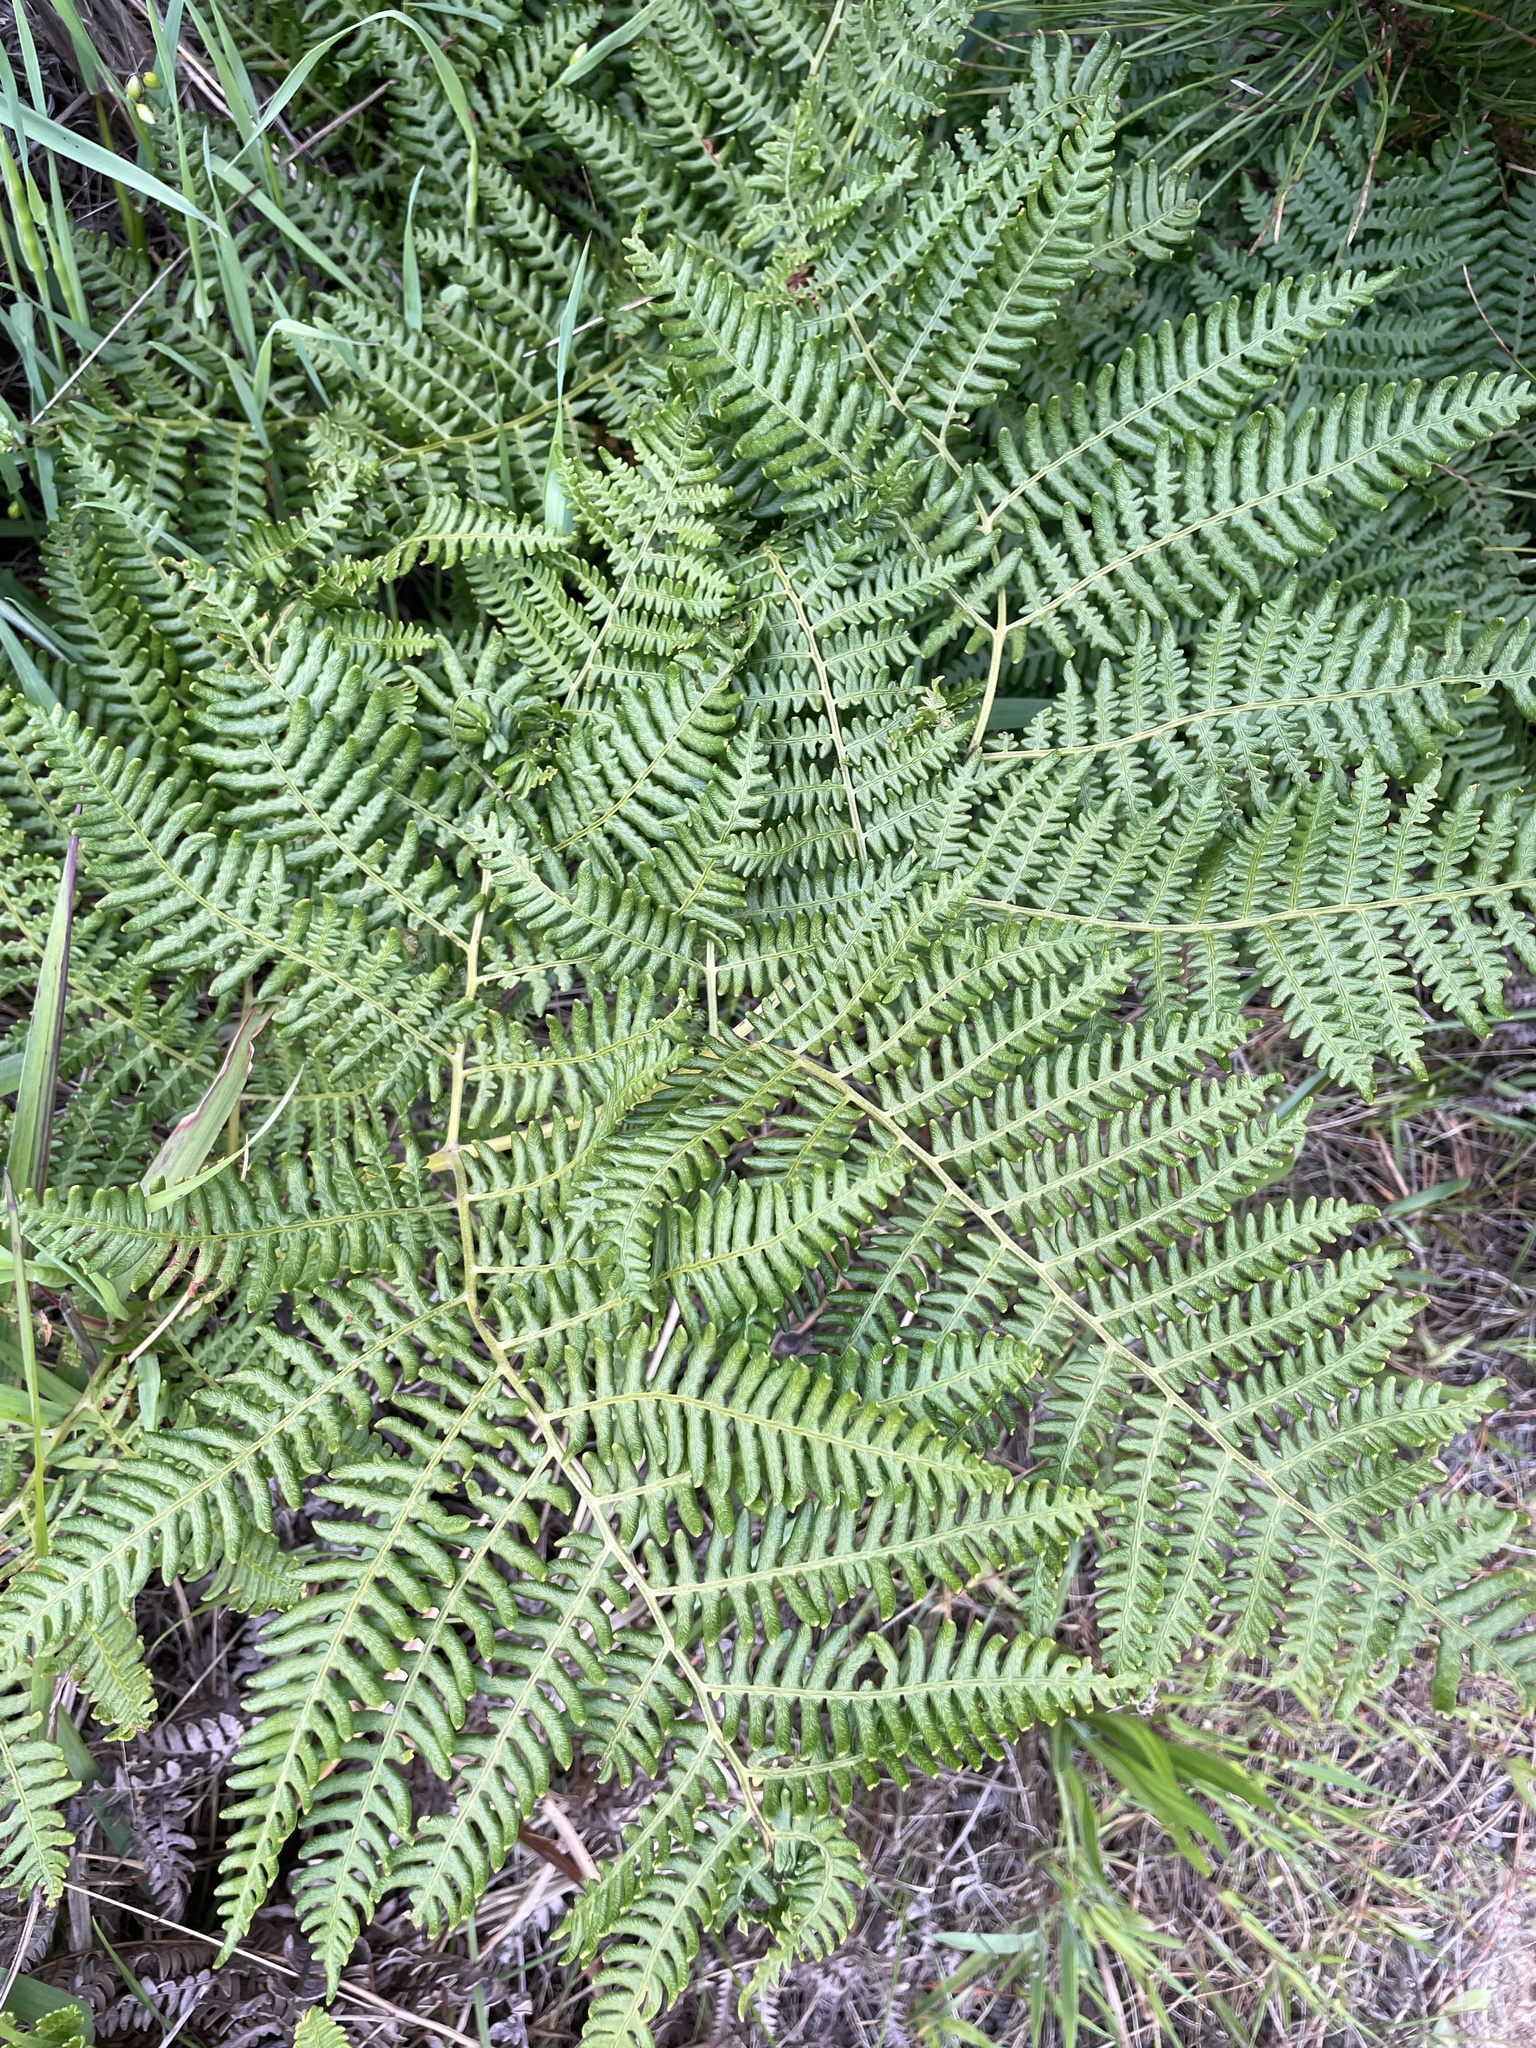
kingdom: Plantae
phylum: Tracheophyta
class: Polypodiopsida
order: Polypodiales
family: Dennstaedtiaceae
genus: Pteridium
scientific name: Pteridium aquilinum
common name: Bracken
